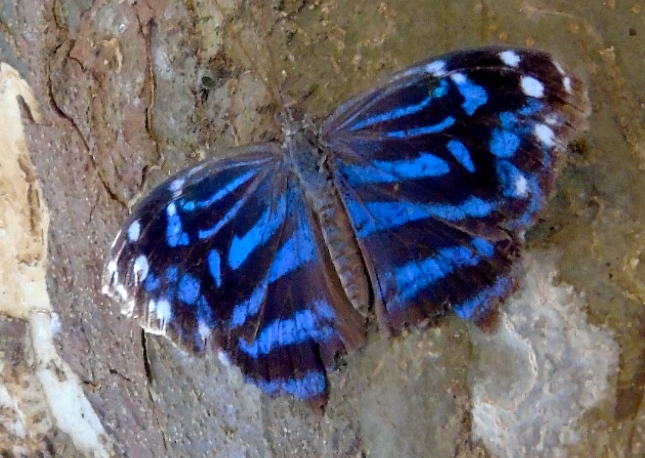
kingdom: Animalia
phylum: Arthropoda
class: Insecta
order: Lepidoptera
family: Nymphalidae
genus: Myscelia
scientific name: Myscelia ethusa
